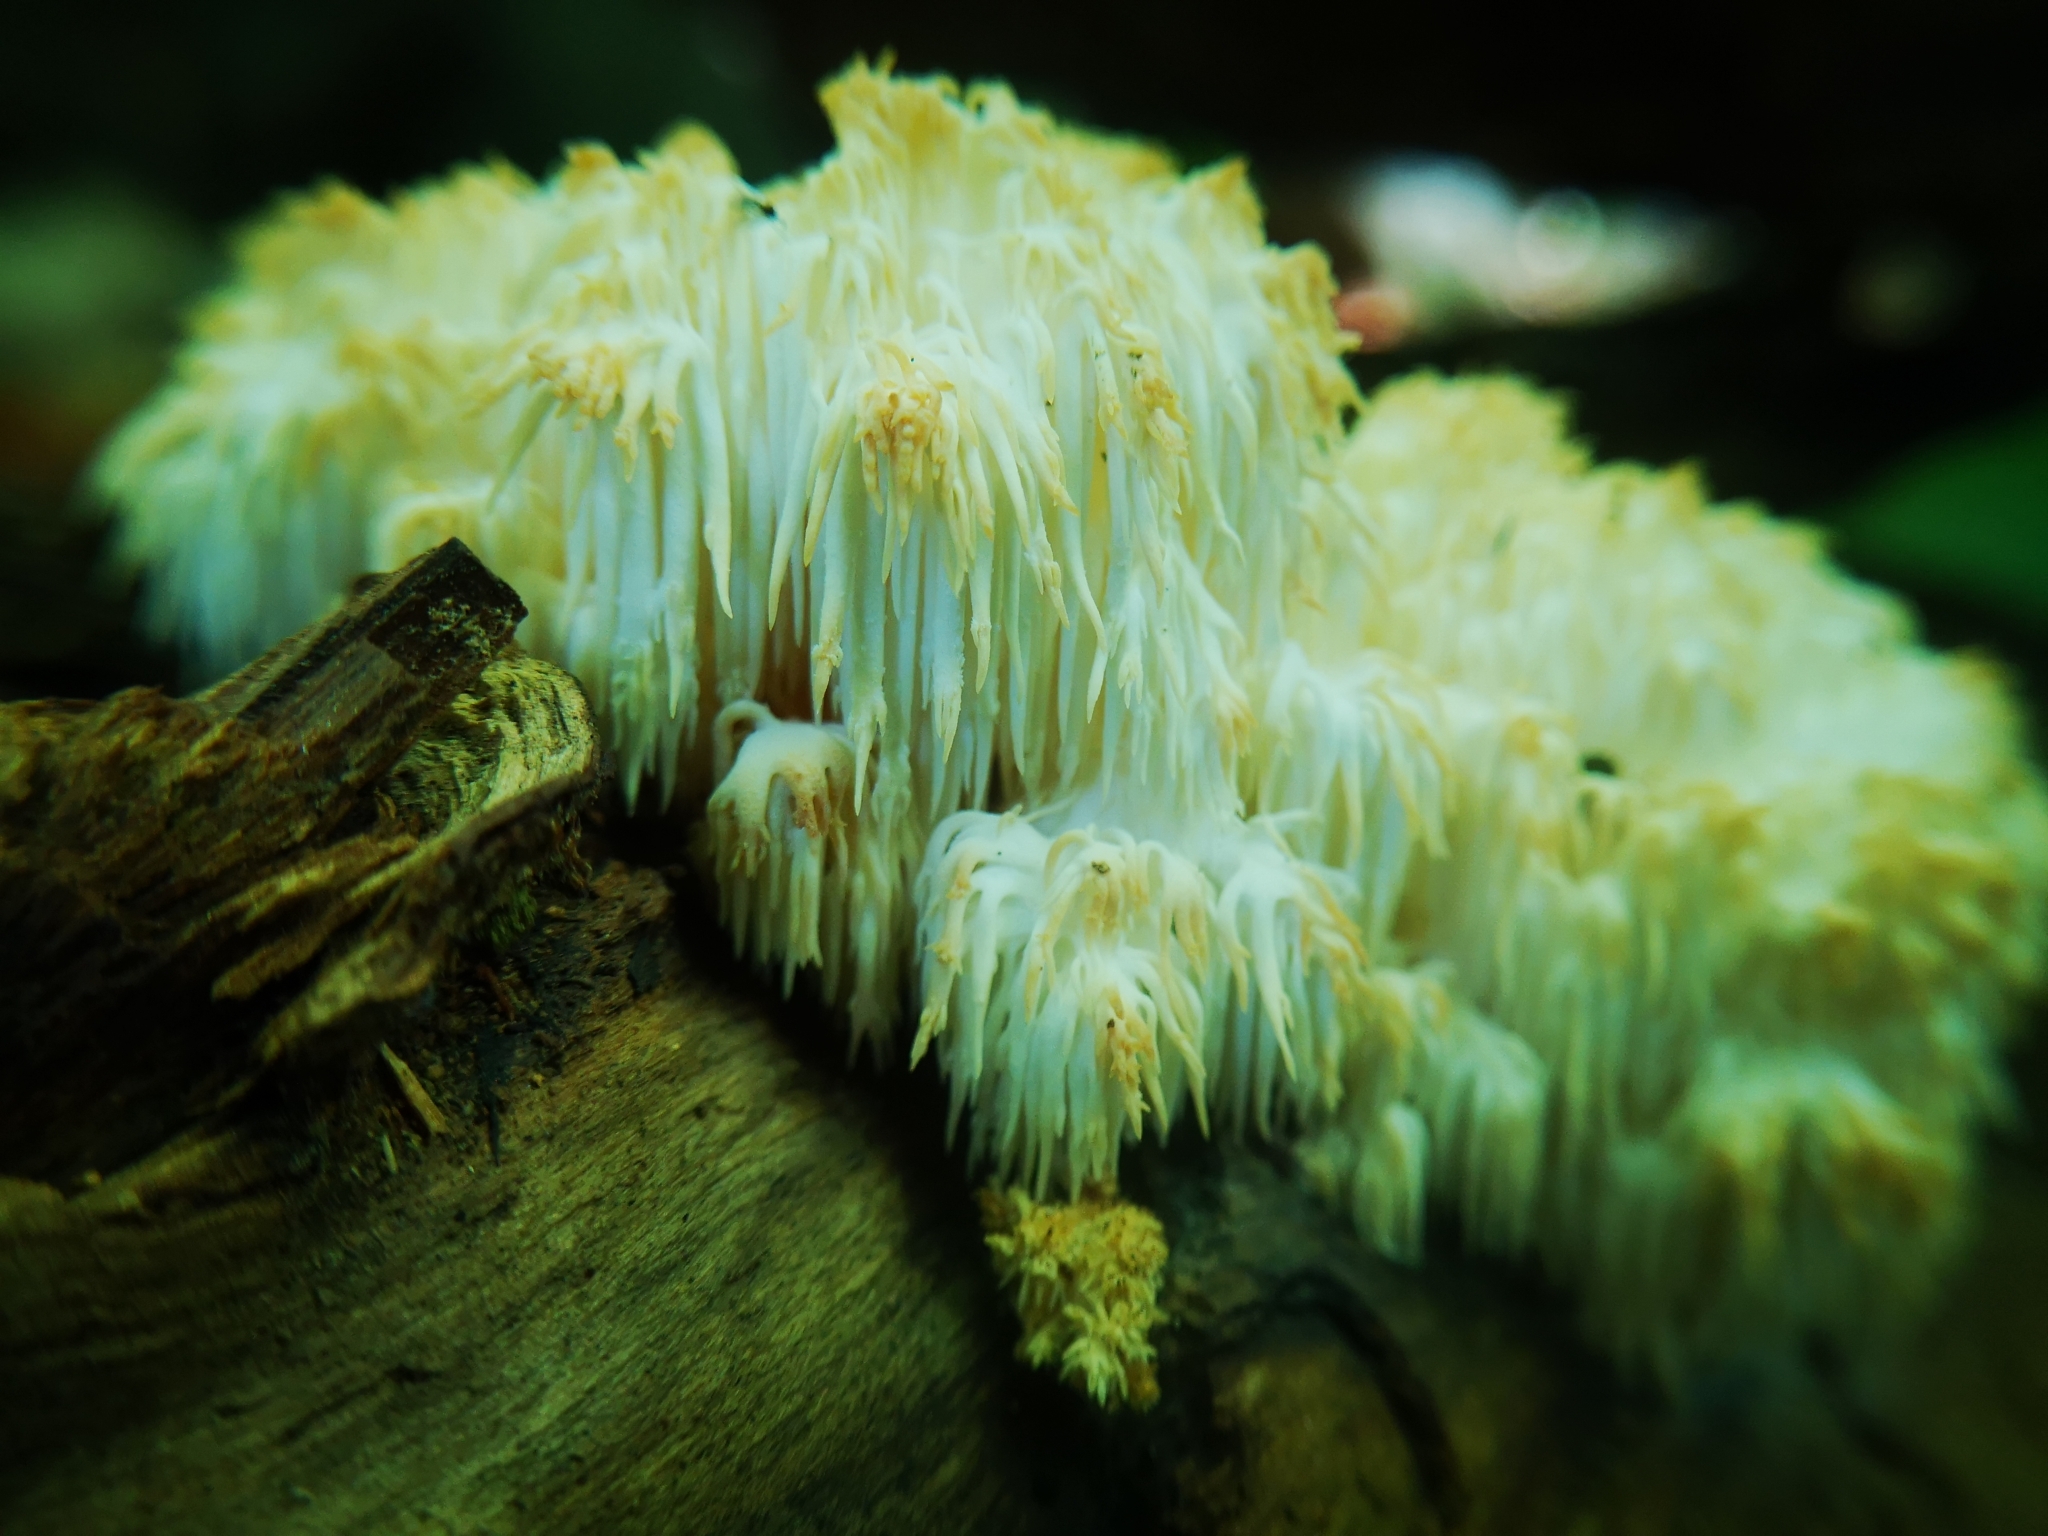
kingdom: Fungi
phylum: Basidiomycota
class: Agaricomycetes
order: Russulales
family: Hericiaceae
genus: Hericium
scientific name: Hericium americanum
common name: Bear's head tooth
